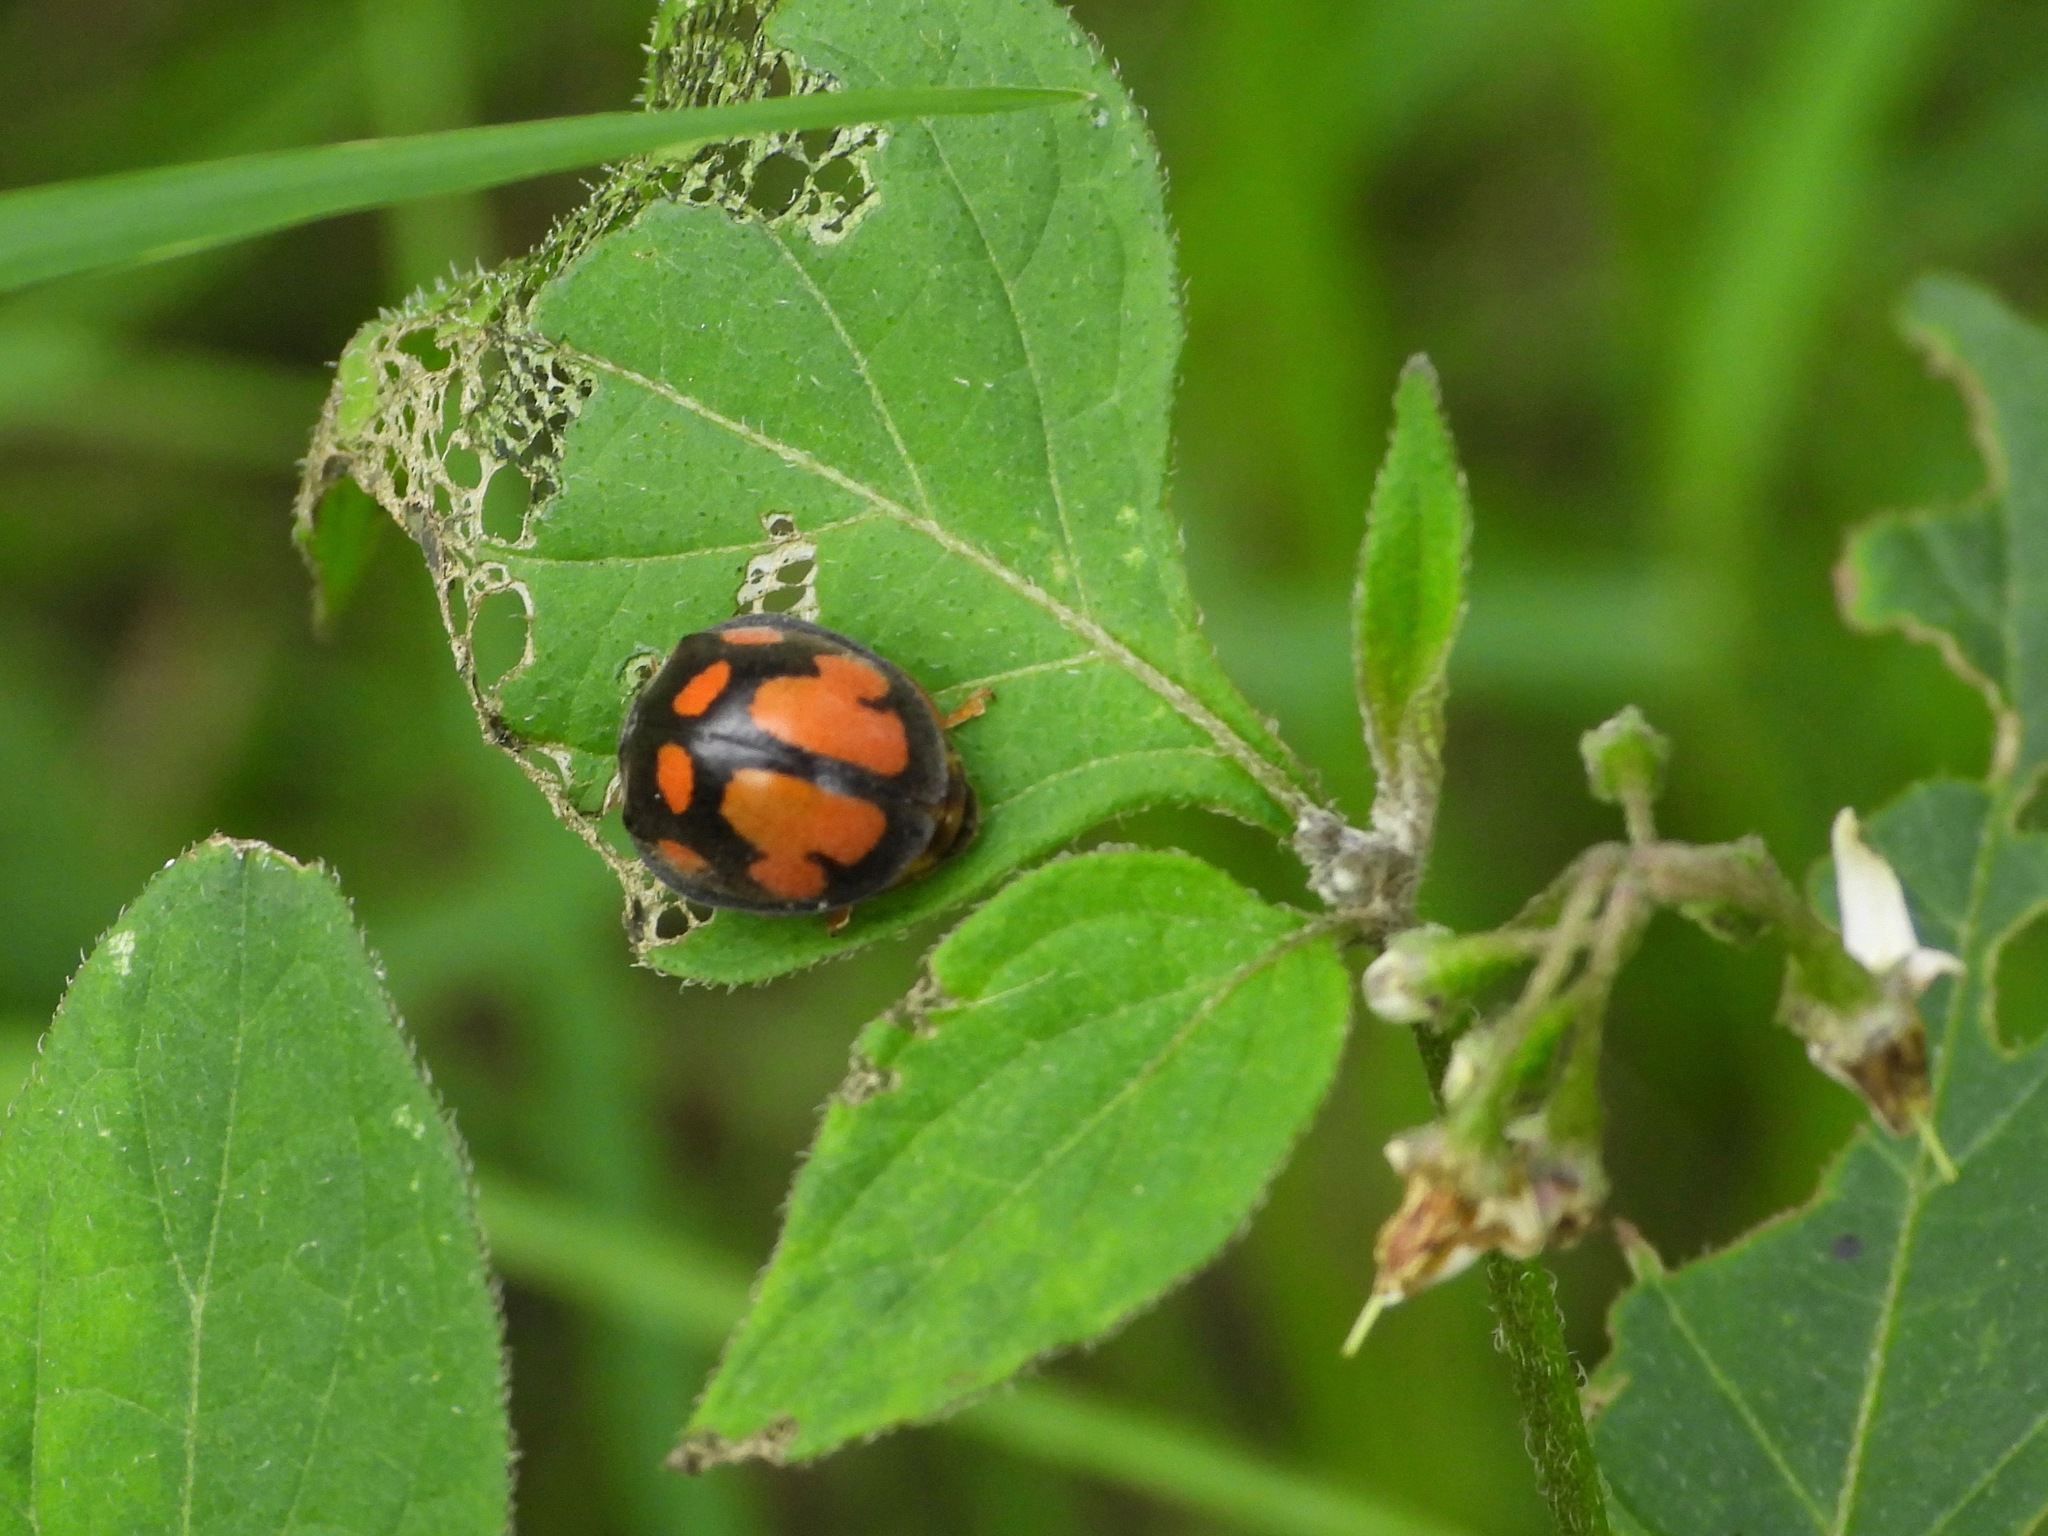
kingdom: Animalia
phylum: Arthropoda
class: Insecta
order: Coleoptera
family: Coccinellidae
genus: Epilachna
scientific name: Epilachna
